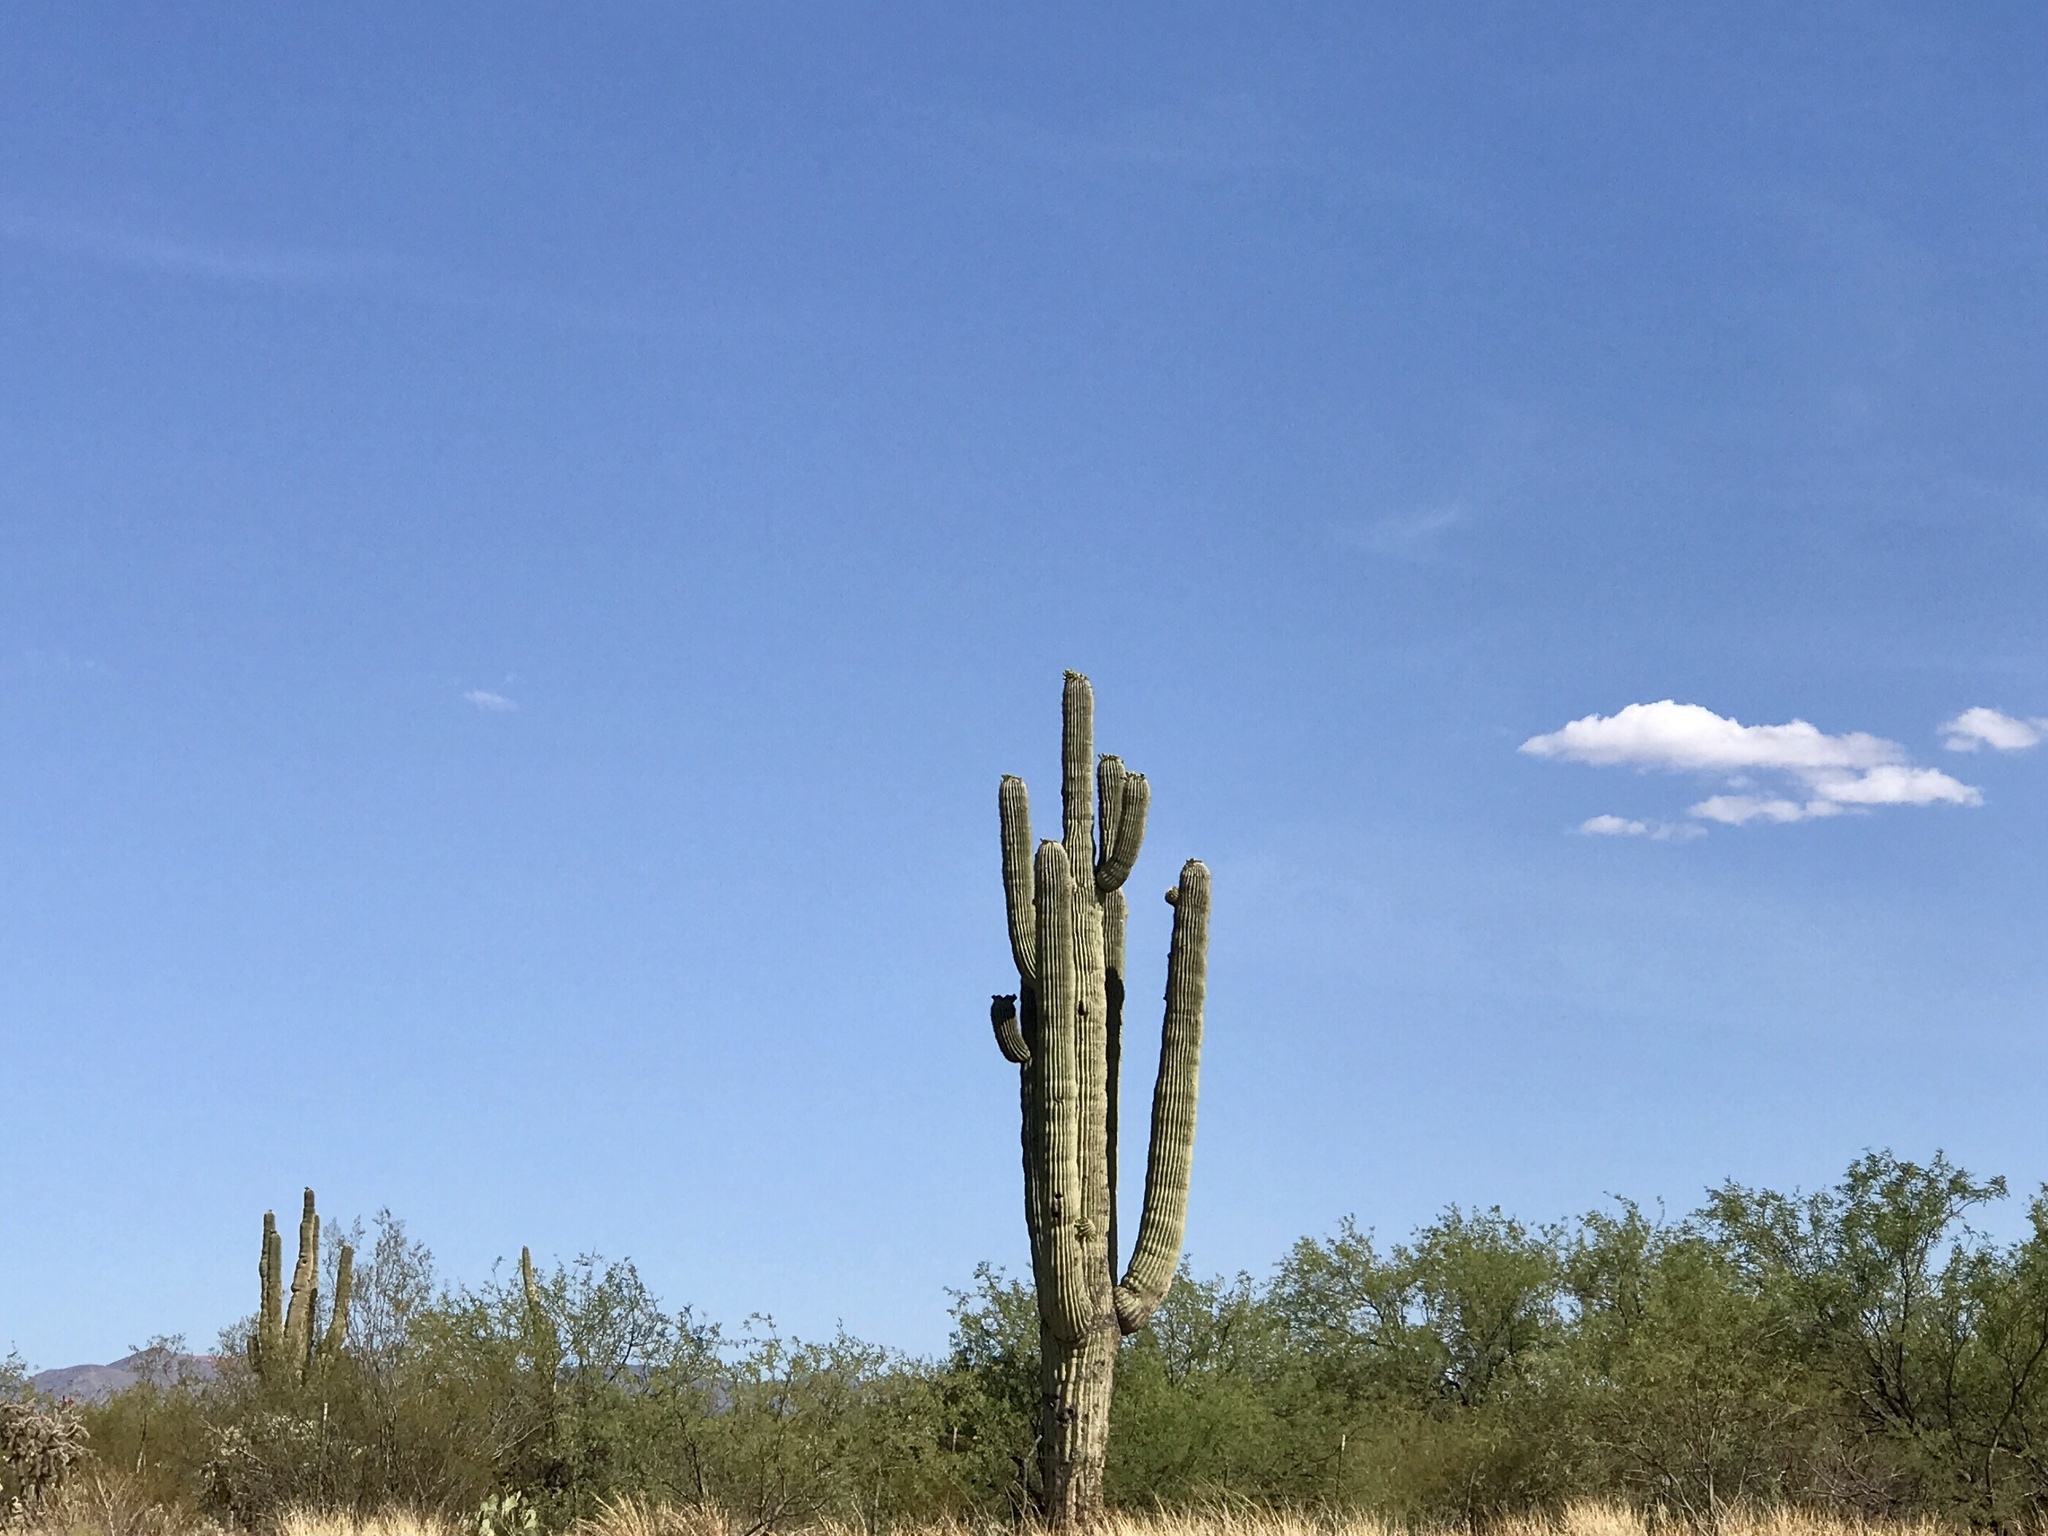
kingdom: Plantae
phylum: Tracheophyta
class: Magnoliopsida
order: Caryophyllales
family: Cactaceae
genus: Carnegiea
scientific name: Carnegiea gigantea
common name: Saguaro
